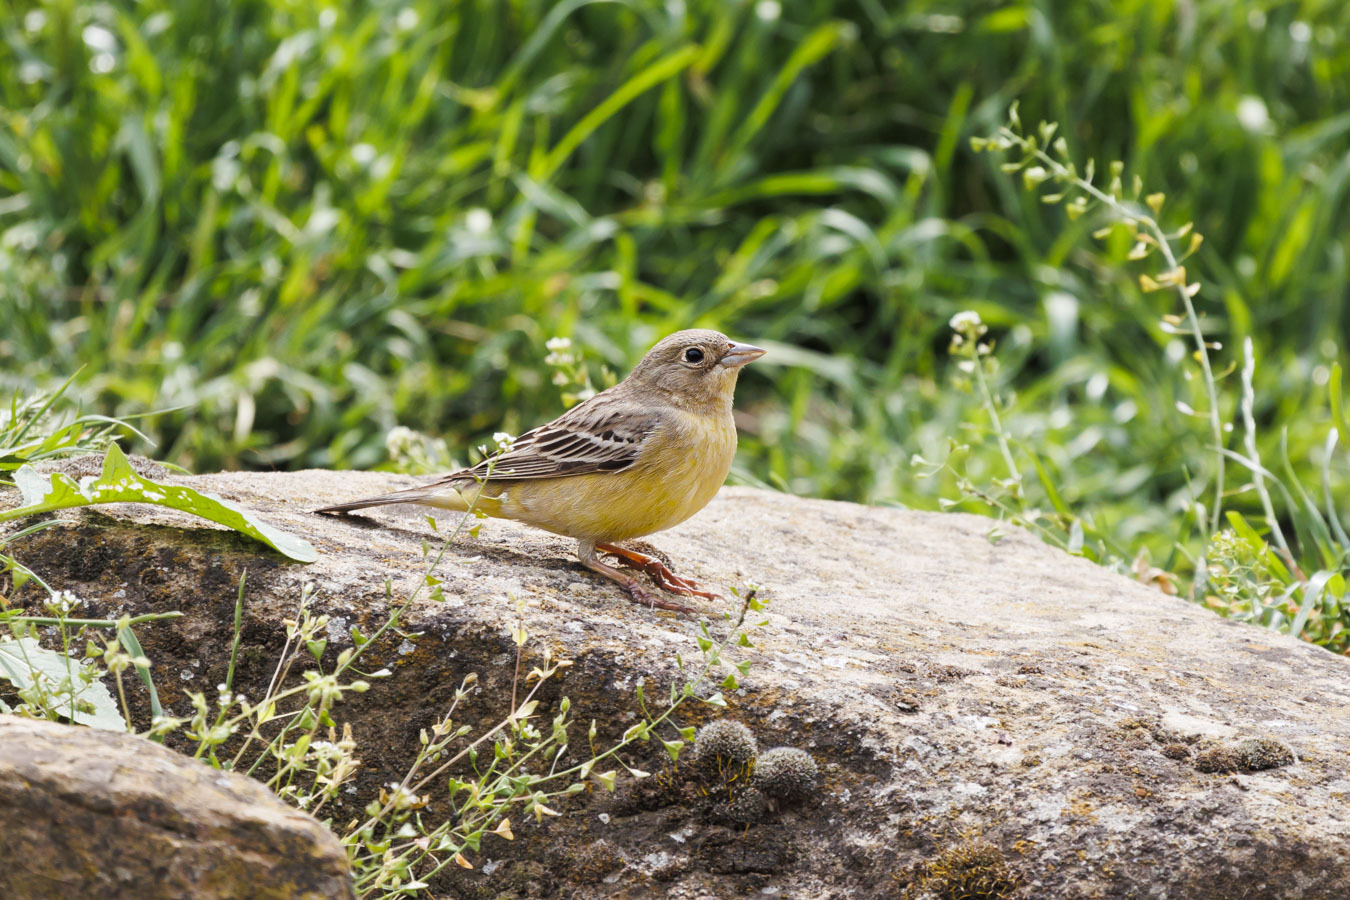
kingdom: Animalia
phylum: Chordata
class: Aves
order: Passeriformes
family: Emberizidae
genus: Emberiza
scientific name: Emberiza melanocephala
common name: Black-headed bunting
